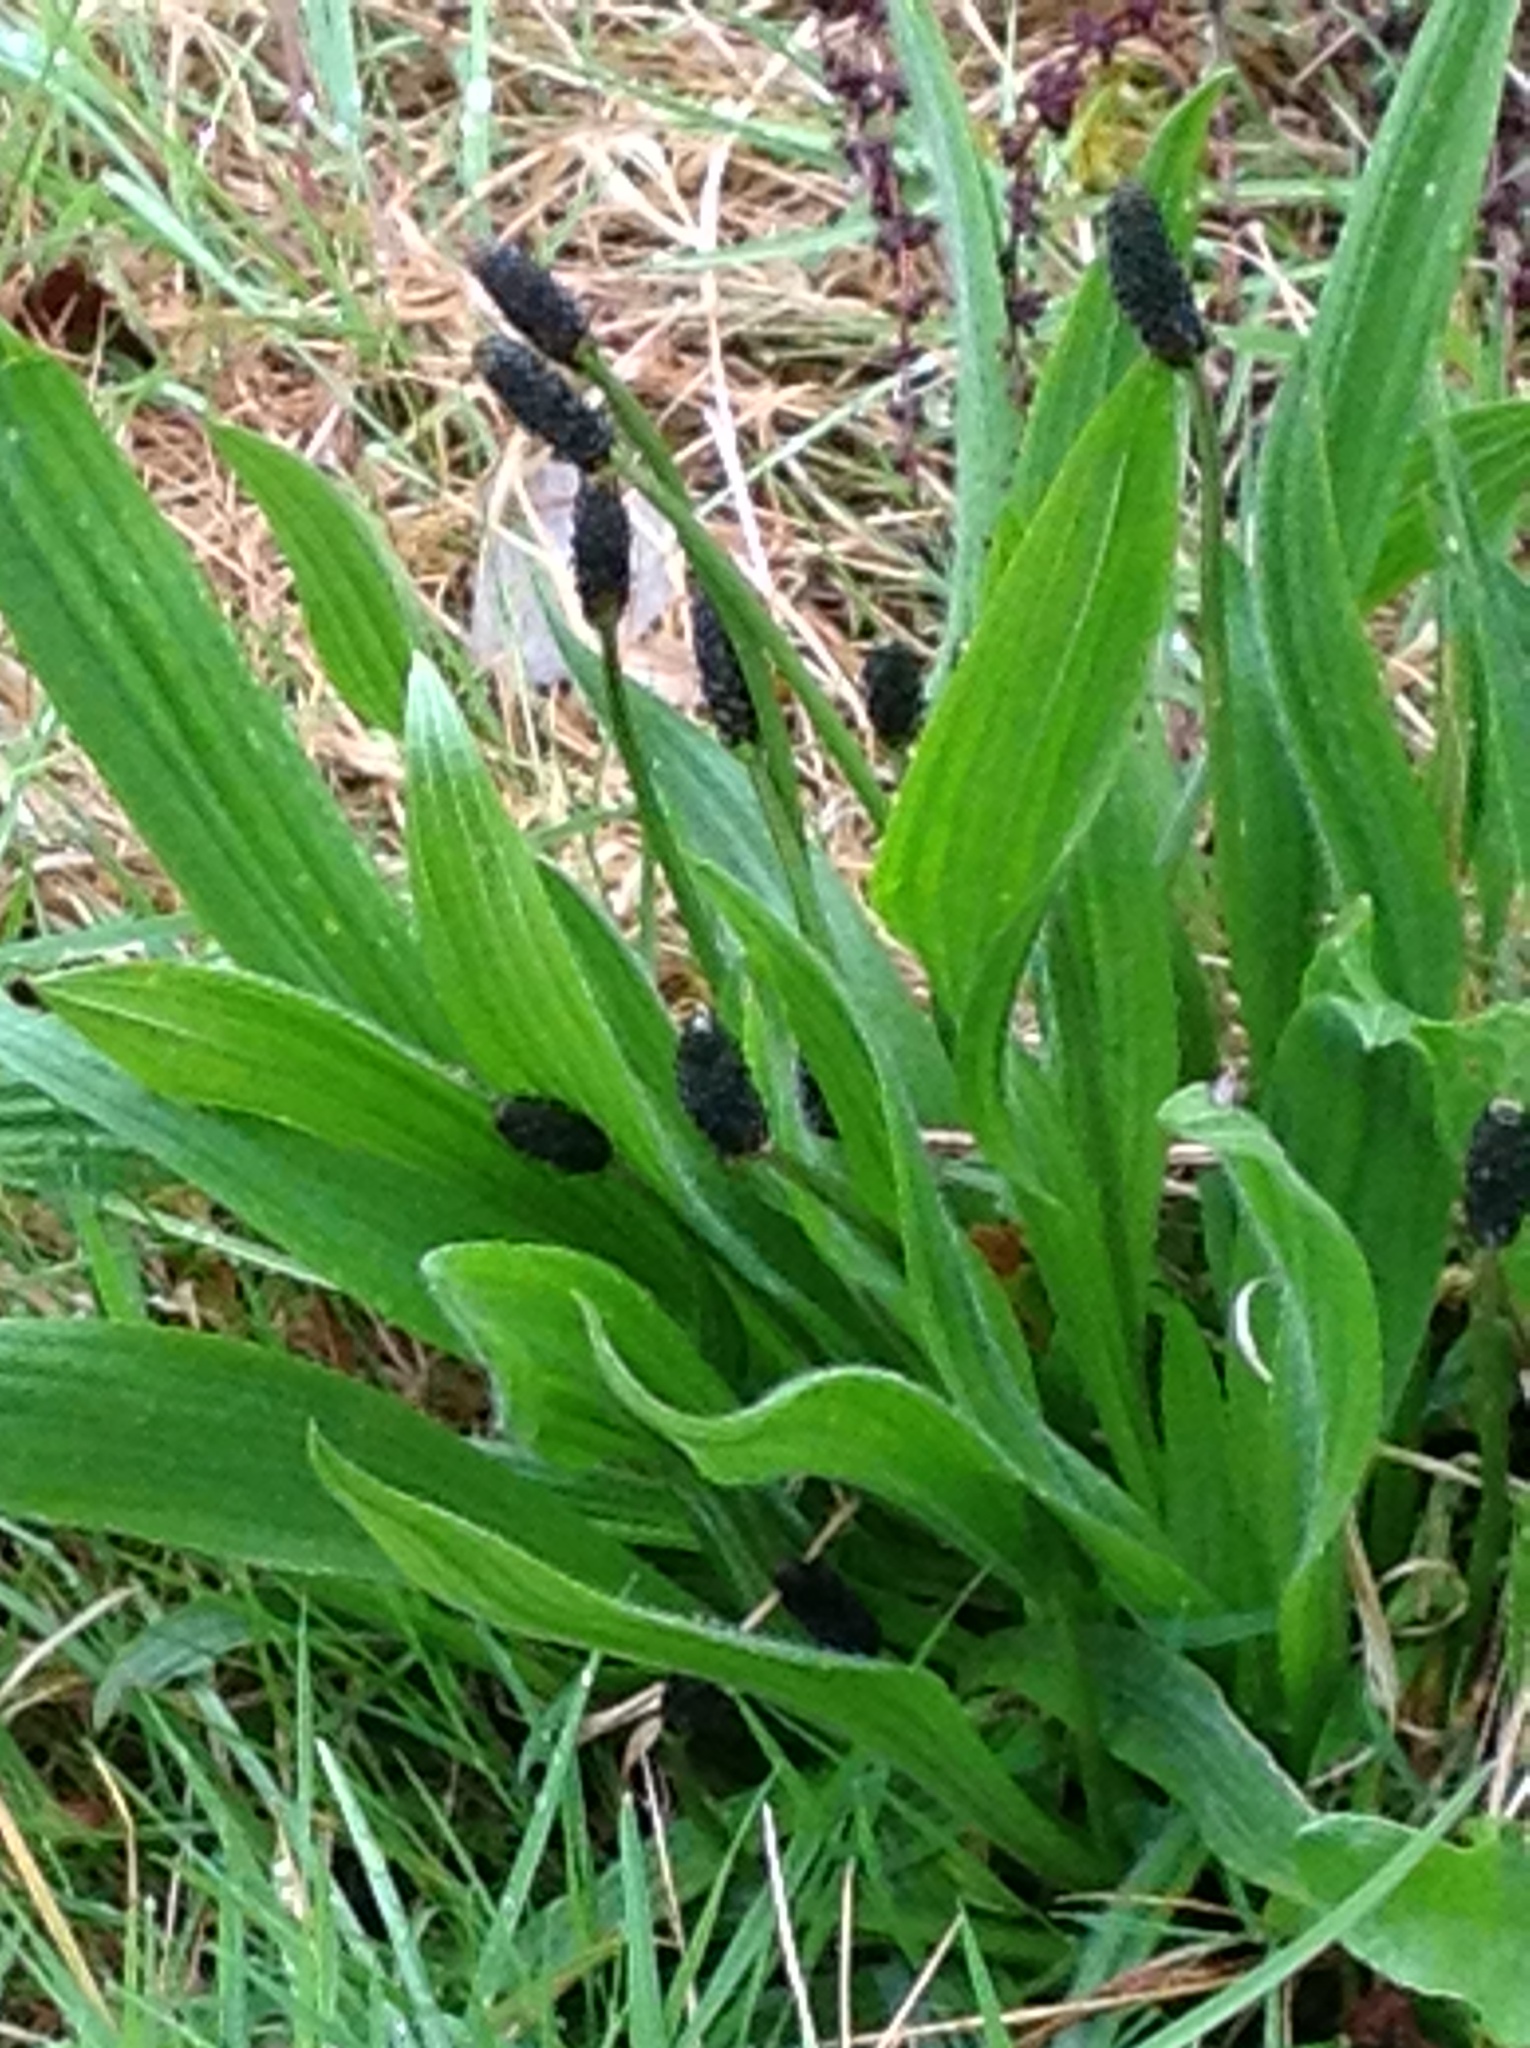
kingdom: Plantae
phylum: Tracheophyta
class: Magnoliopsida
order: Lamiales
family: Plantaginaceae
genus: Plantago
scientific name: Plantago lanceolata
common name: Ribwort plantain
